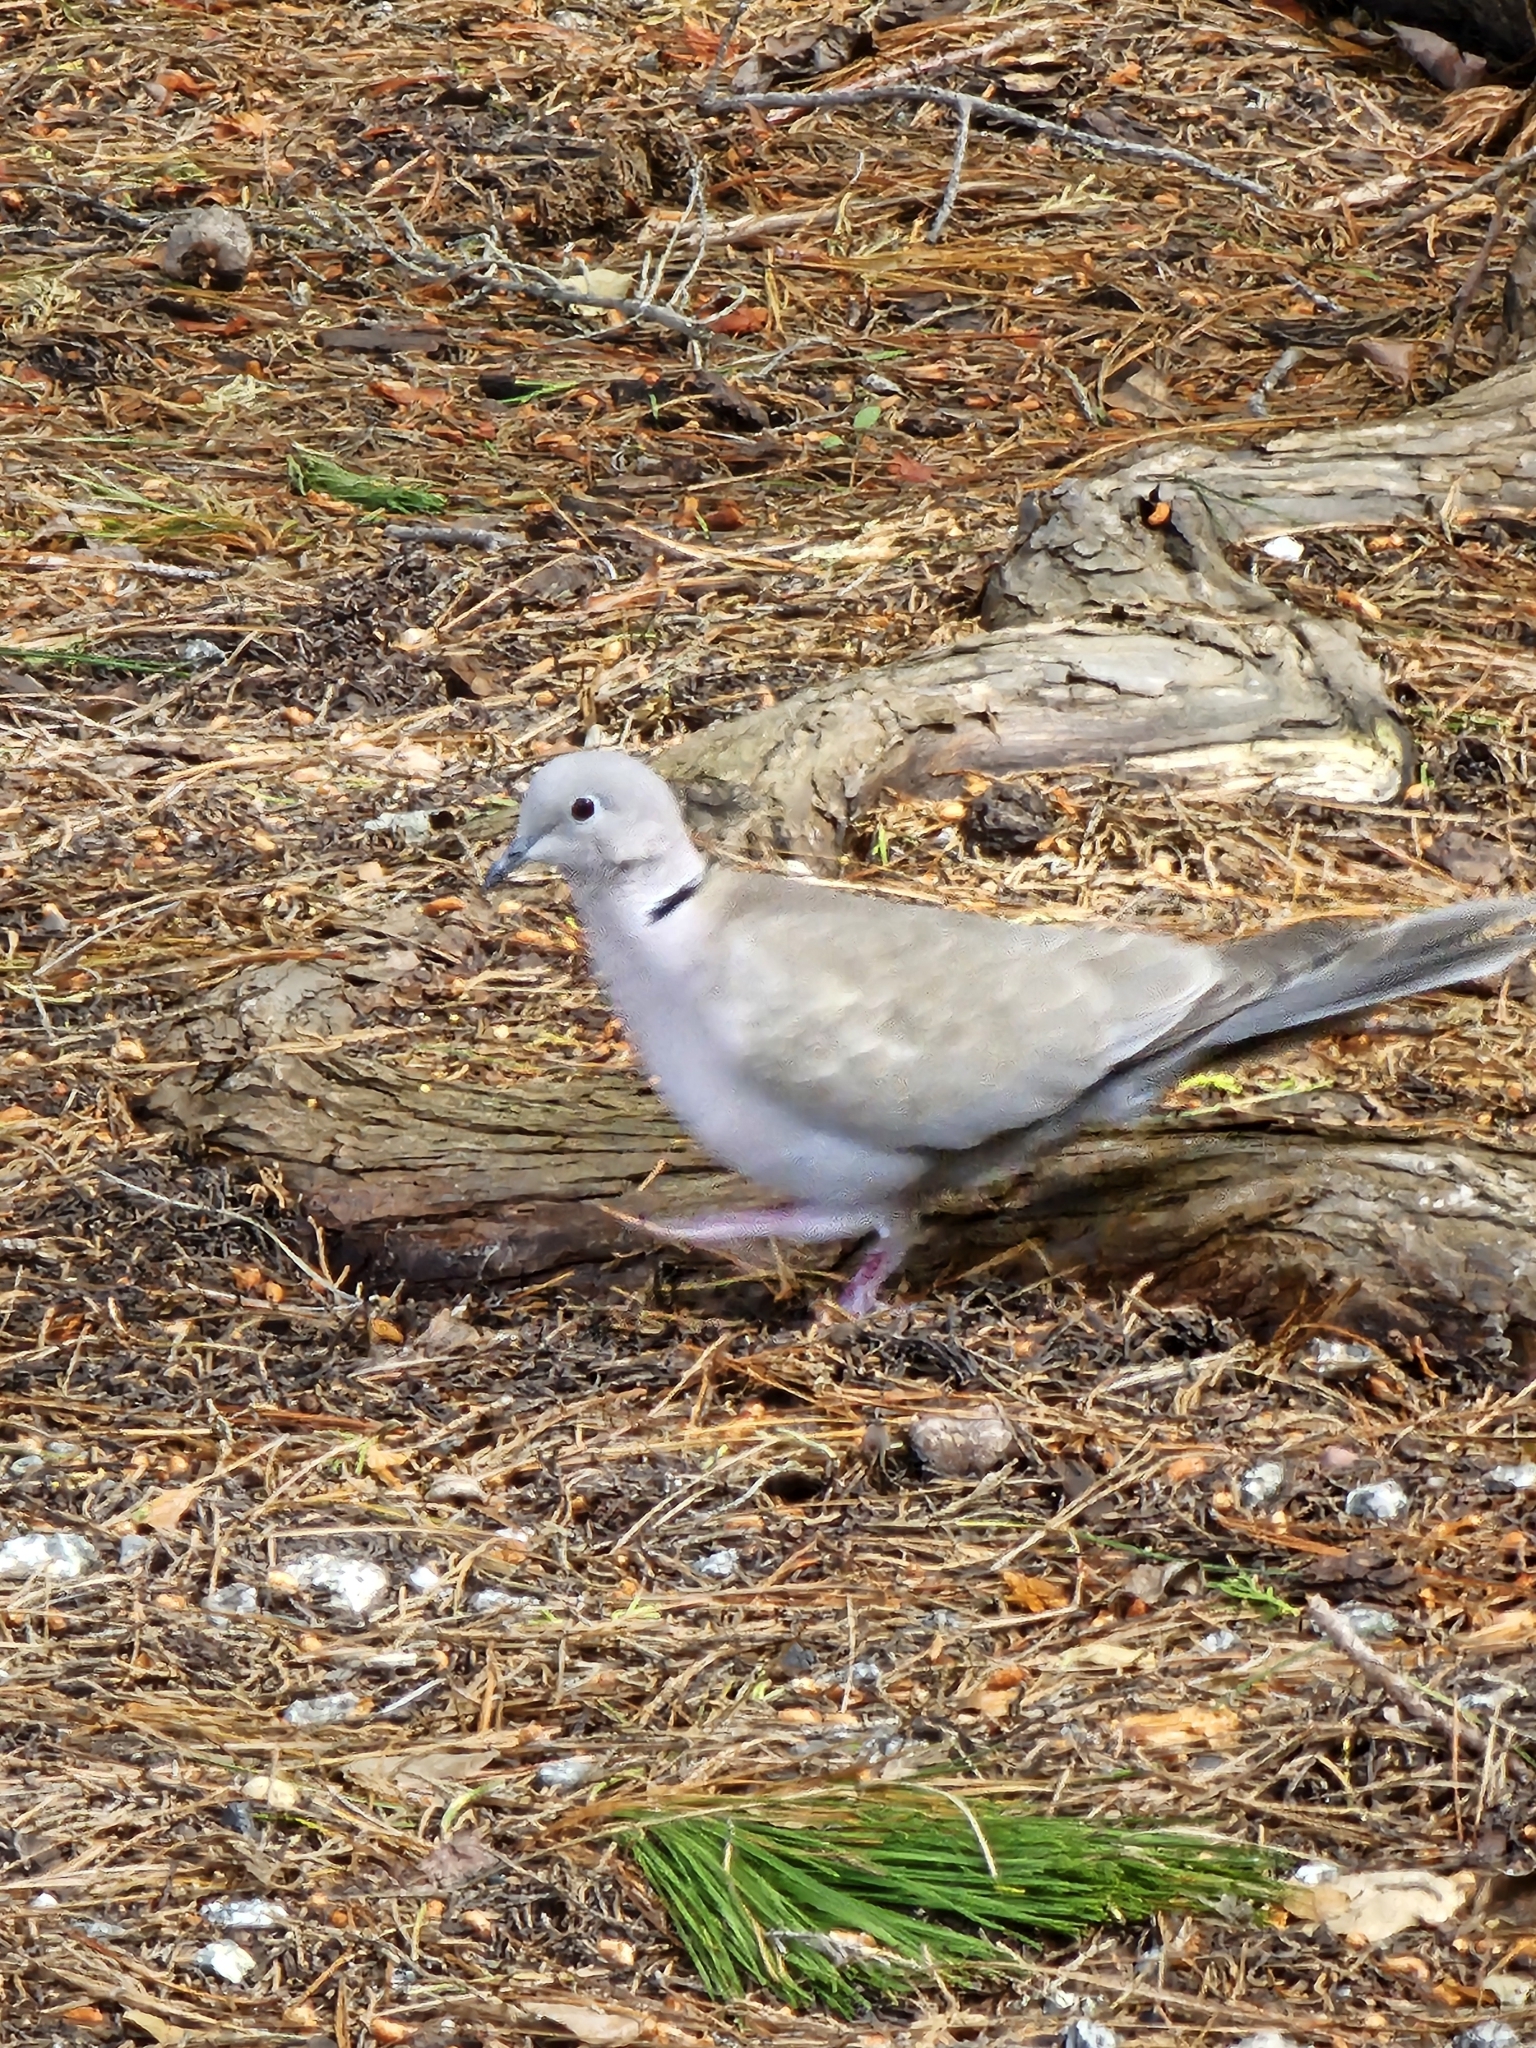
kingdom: Animalia
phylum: Chordata
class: Aves
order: Columbiformes
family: Columbidae
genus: Streptopelia
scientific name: Streptopelia decaocto
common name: Eurasian collared dove
